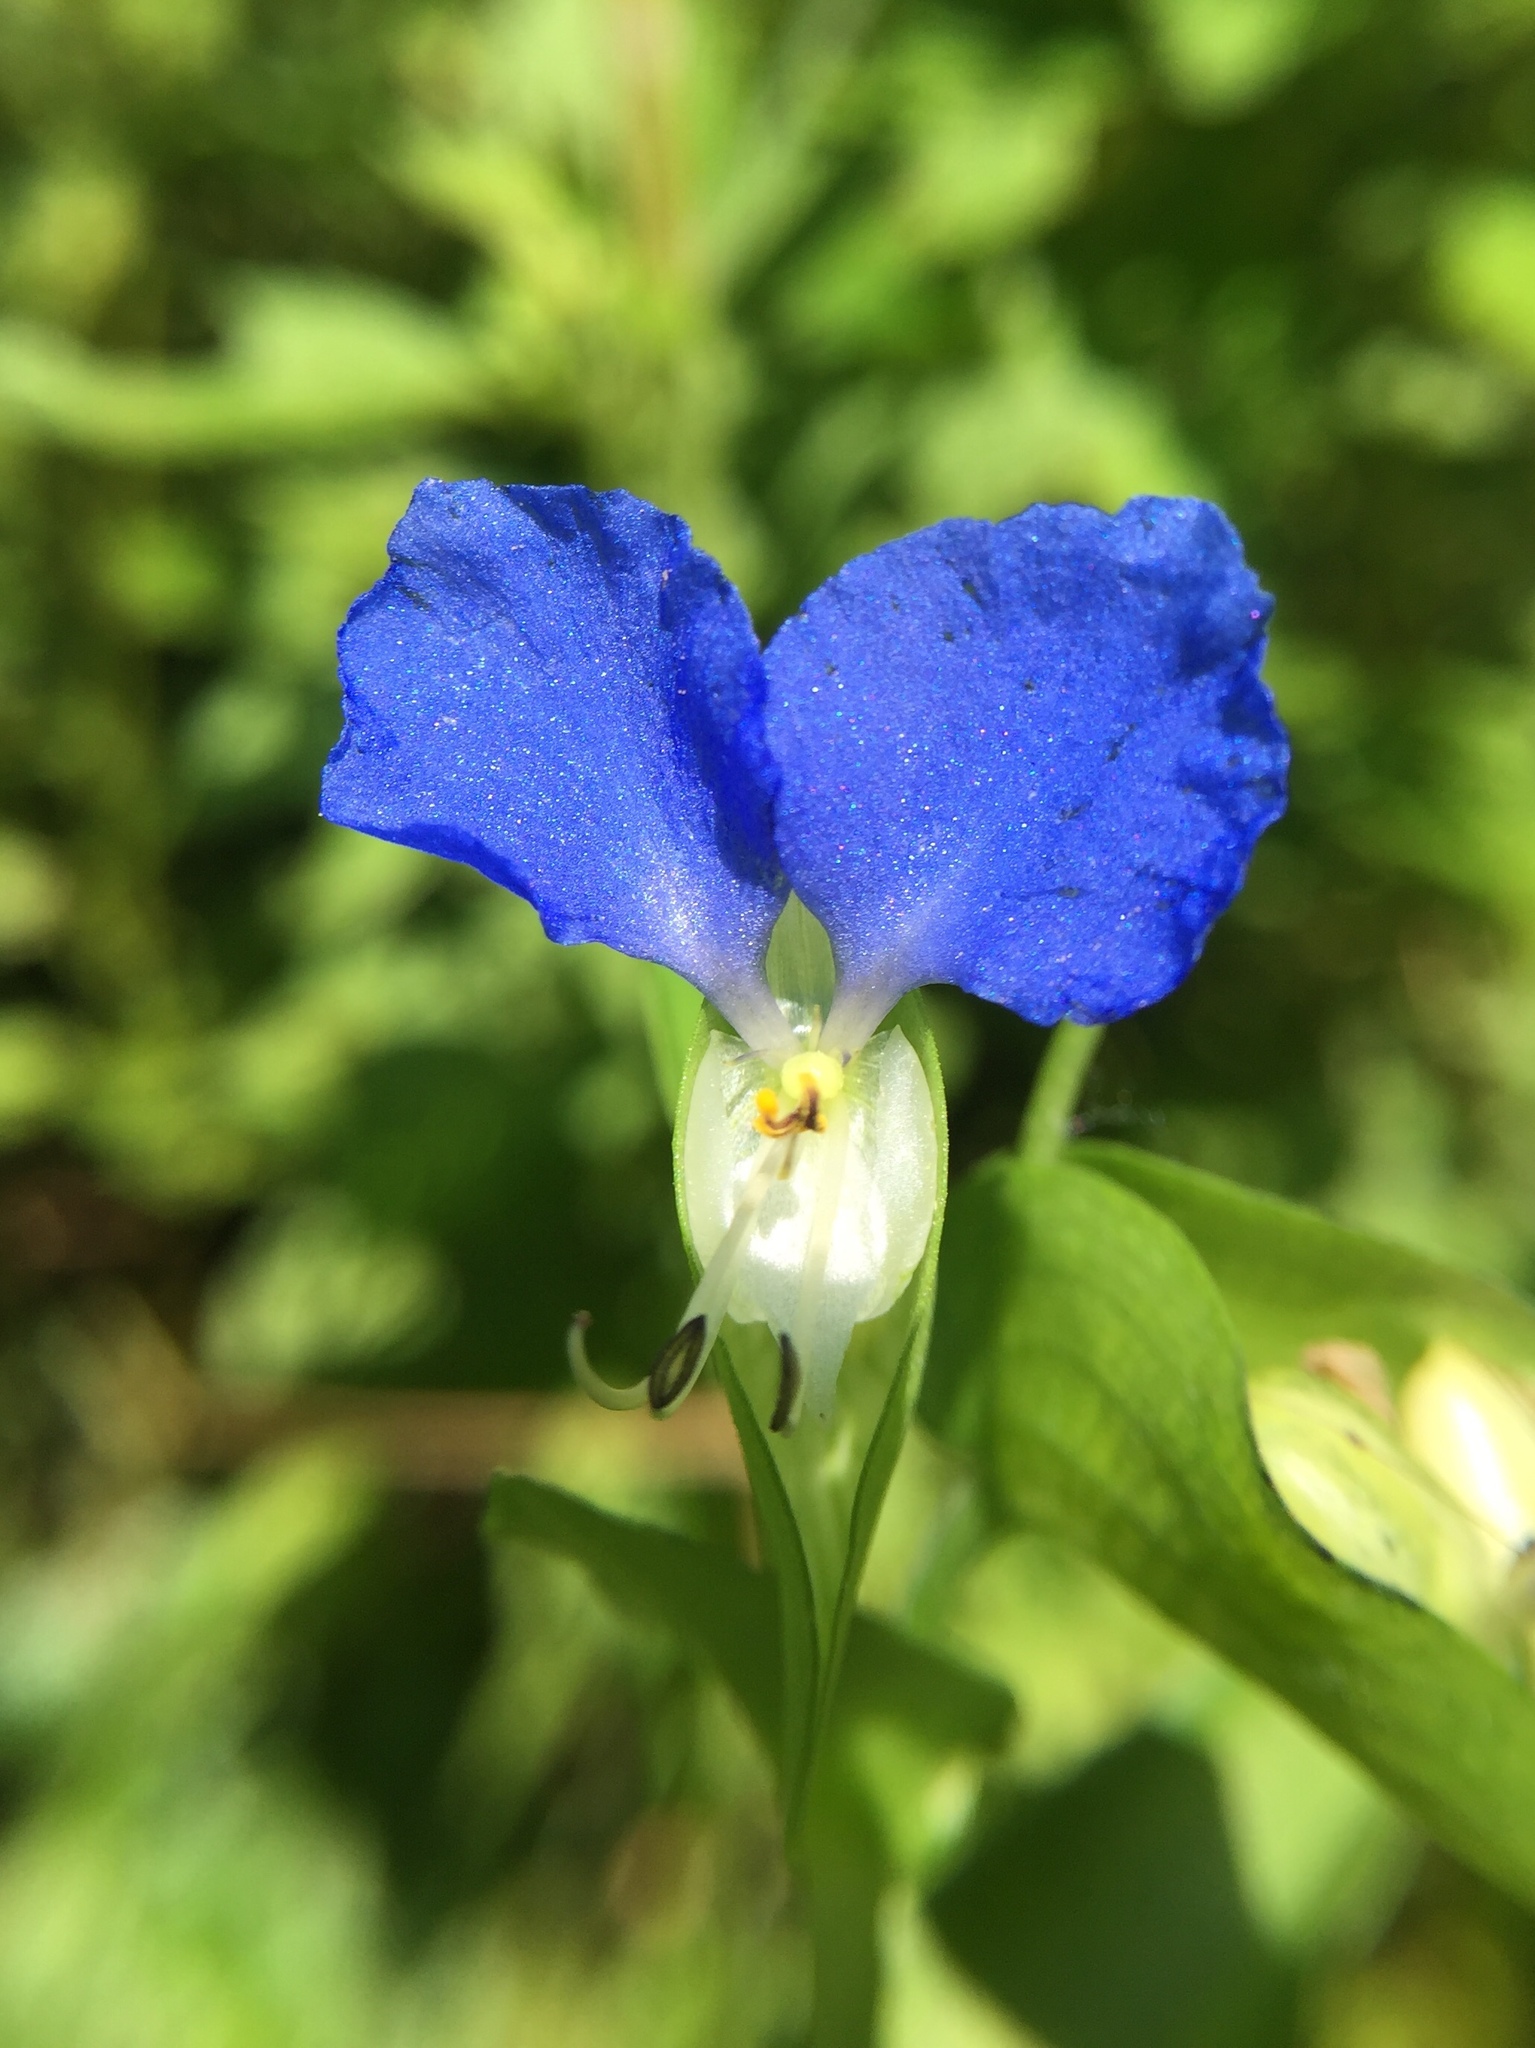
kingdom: Plantae
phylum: Tracheophyta
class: Liliopsida
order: Commelinales
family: Commelinaceae
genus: Commelina
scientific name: Commelina communis
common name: Asiatic dayflower
